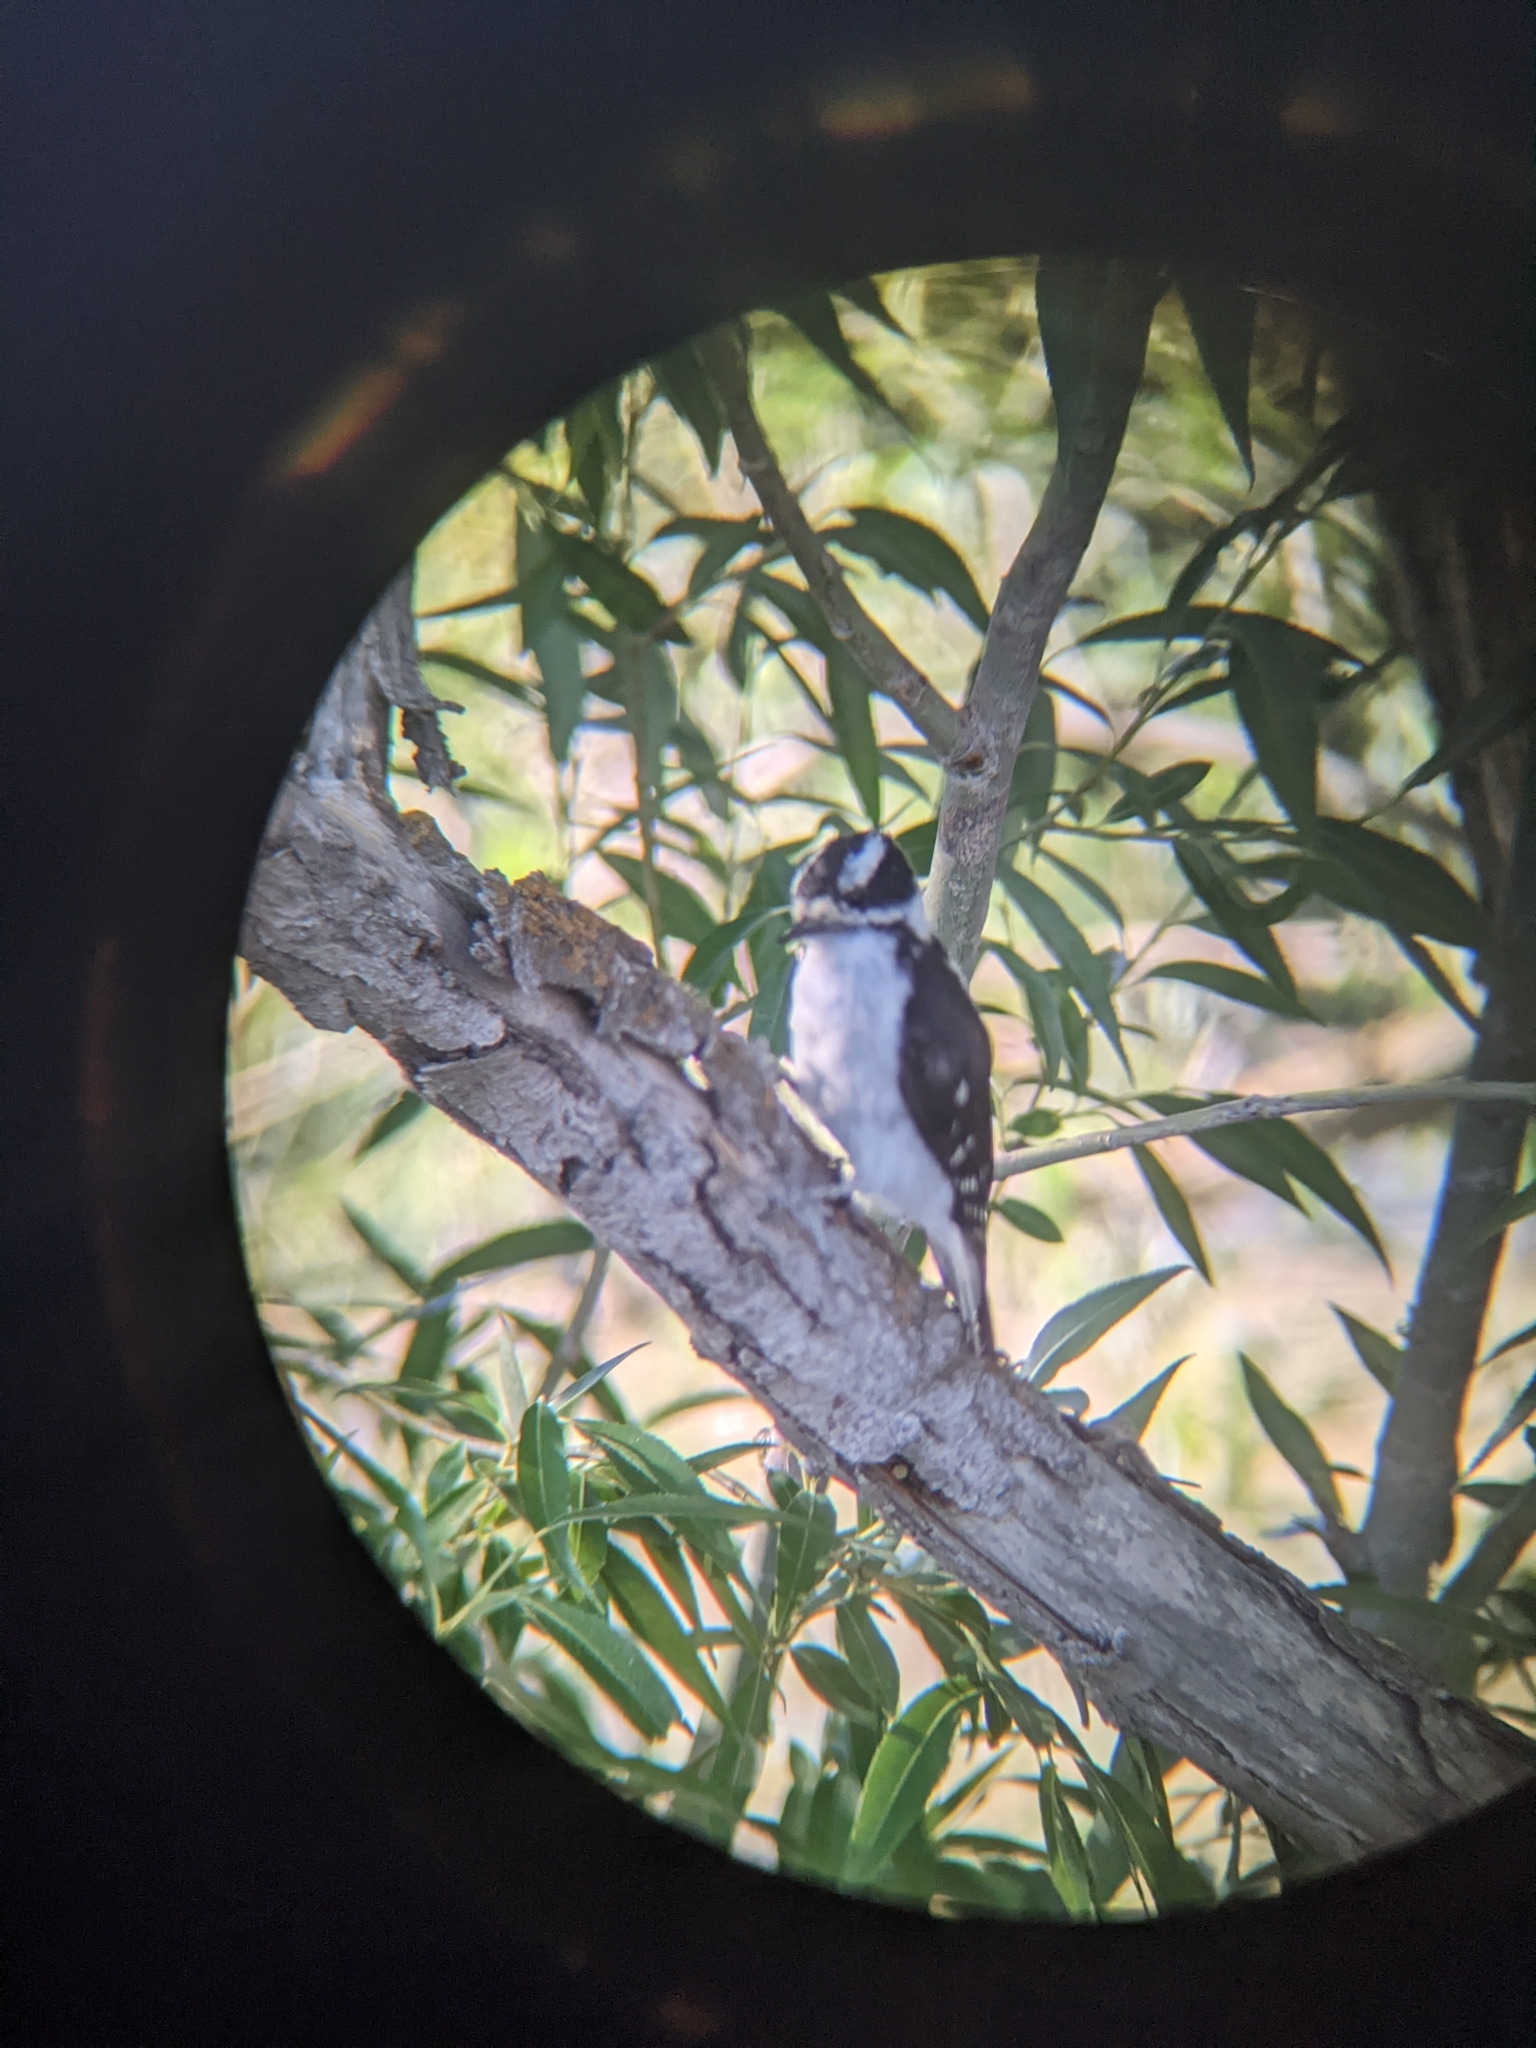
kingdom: Animalia
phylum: Chordata
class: Aves
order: Piciformes
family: Picidae
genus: Dryobates
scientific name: Dryobates pubescens
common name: Downy woodpecker
